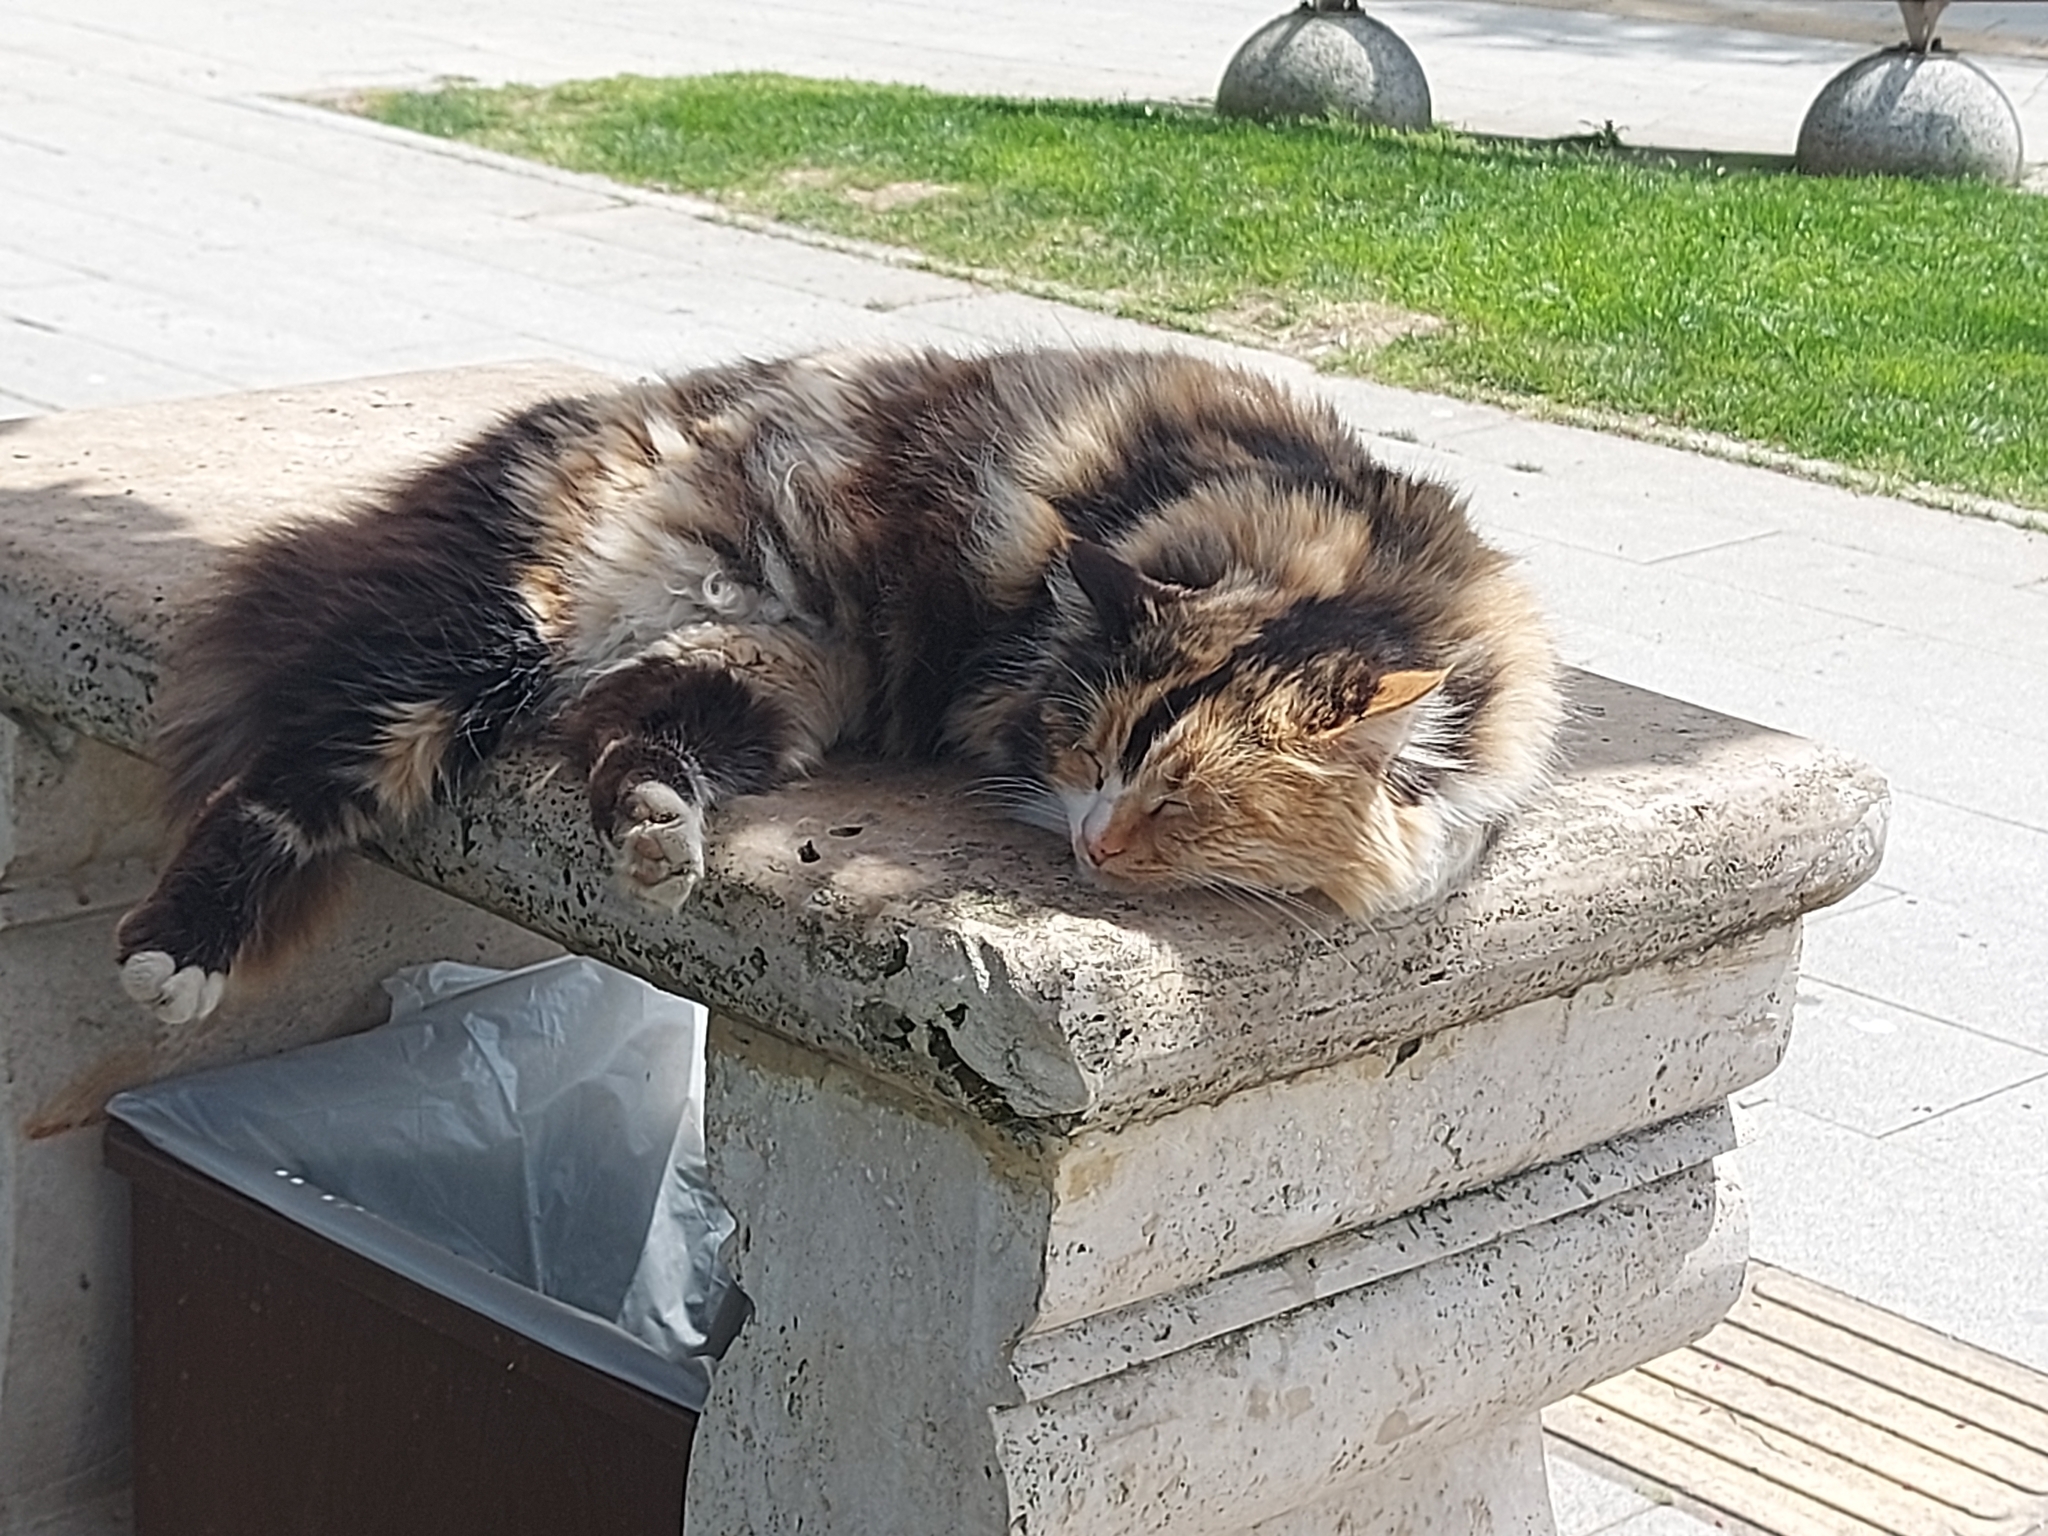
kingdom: Animalia
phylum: Chordata
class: Mammalia
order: Carnivora
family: Felidae
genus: Felis
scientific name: Felis catus
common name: Domestic cat
